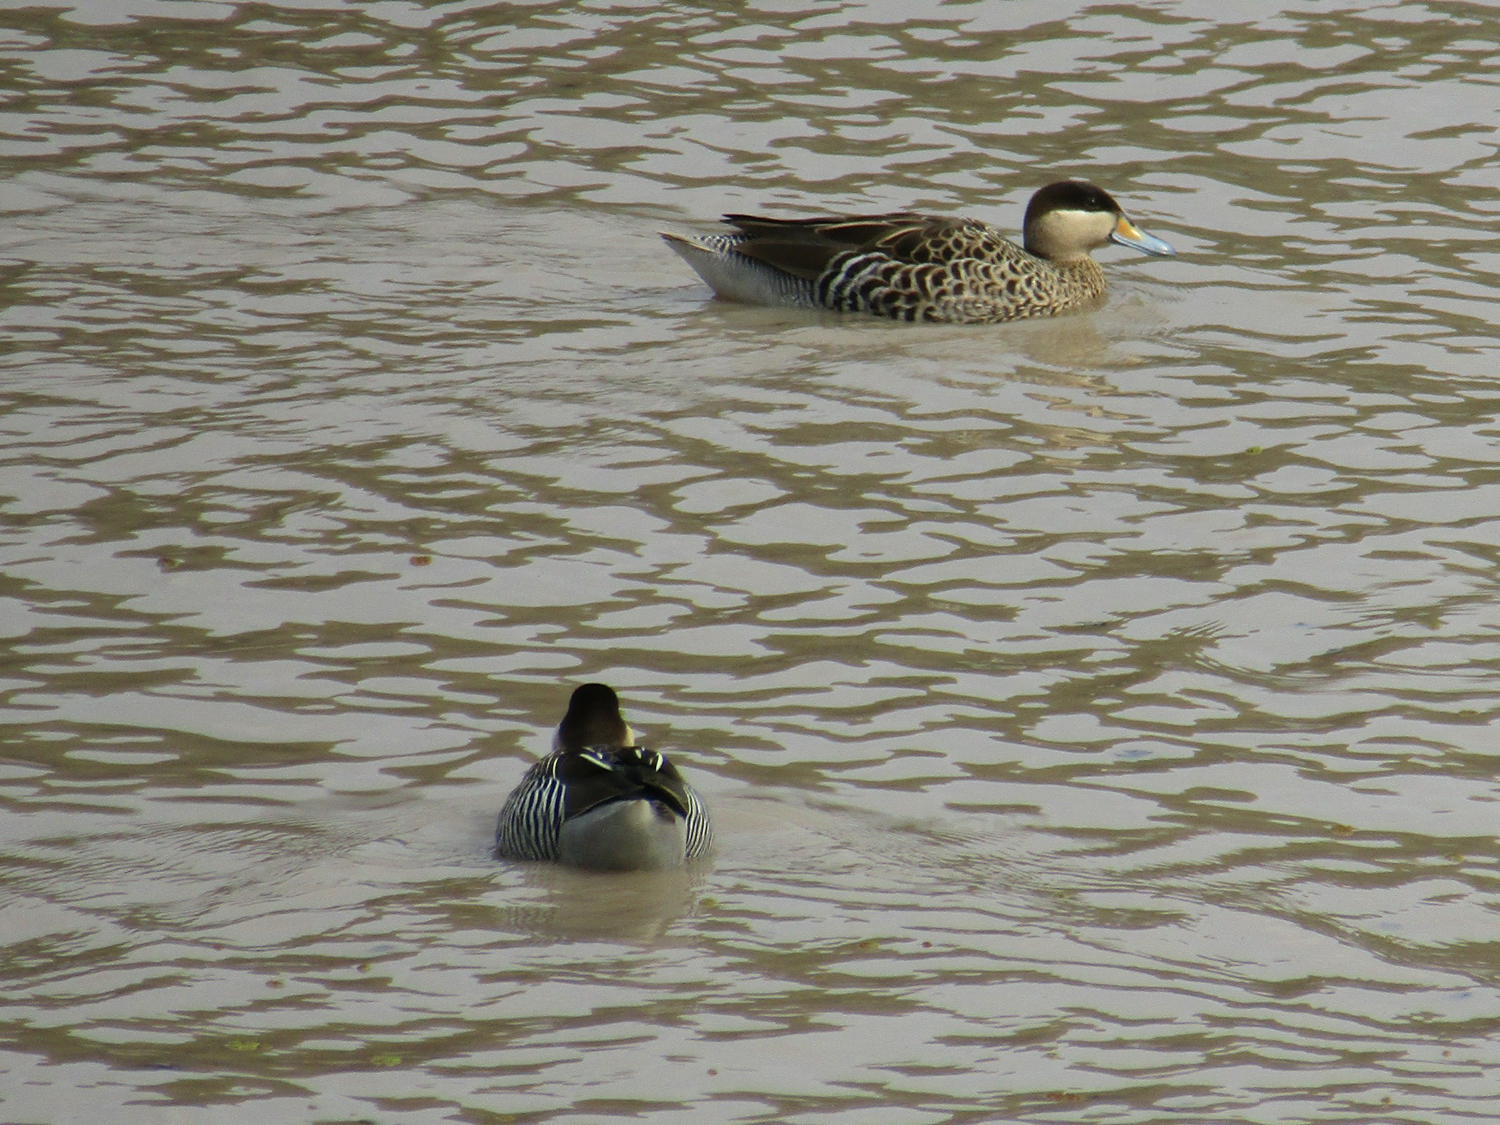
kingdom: Animalia
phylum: Chordata
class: Aves
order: Anseriformes
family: Anatidae
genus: Spatula
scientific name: Spatula versicolor
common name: Silver teal
